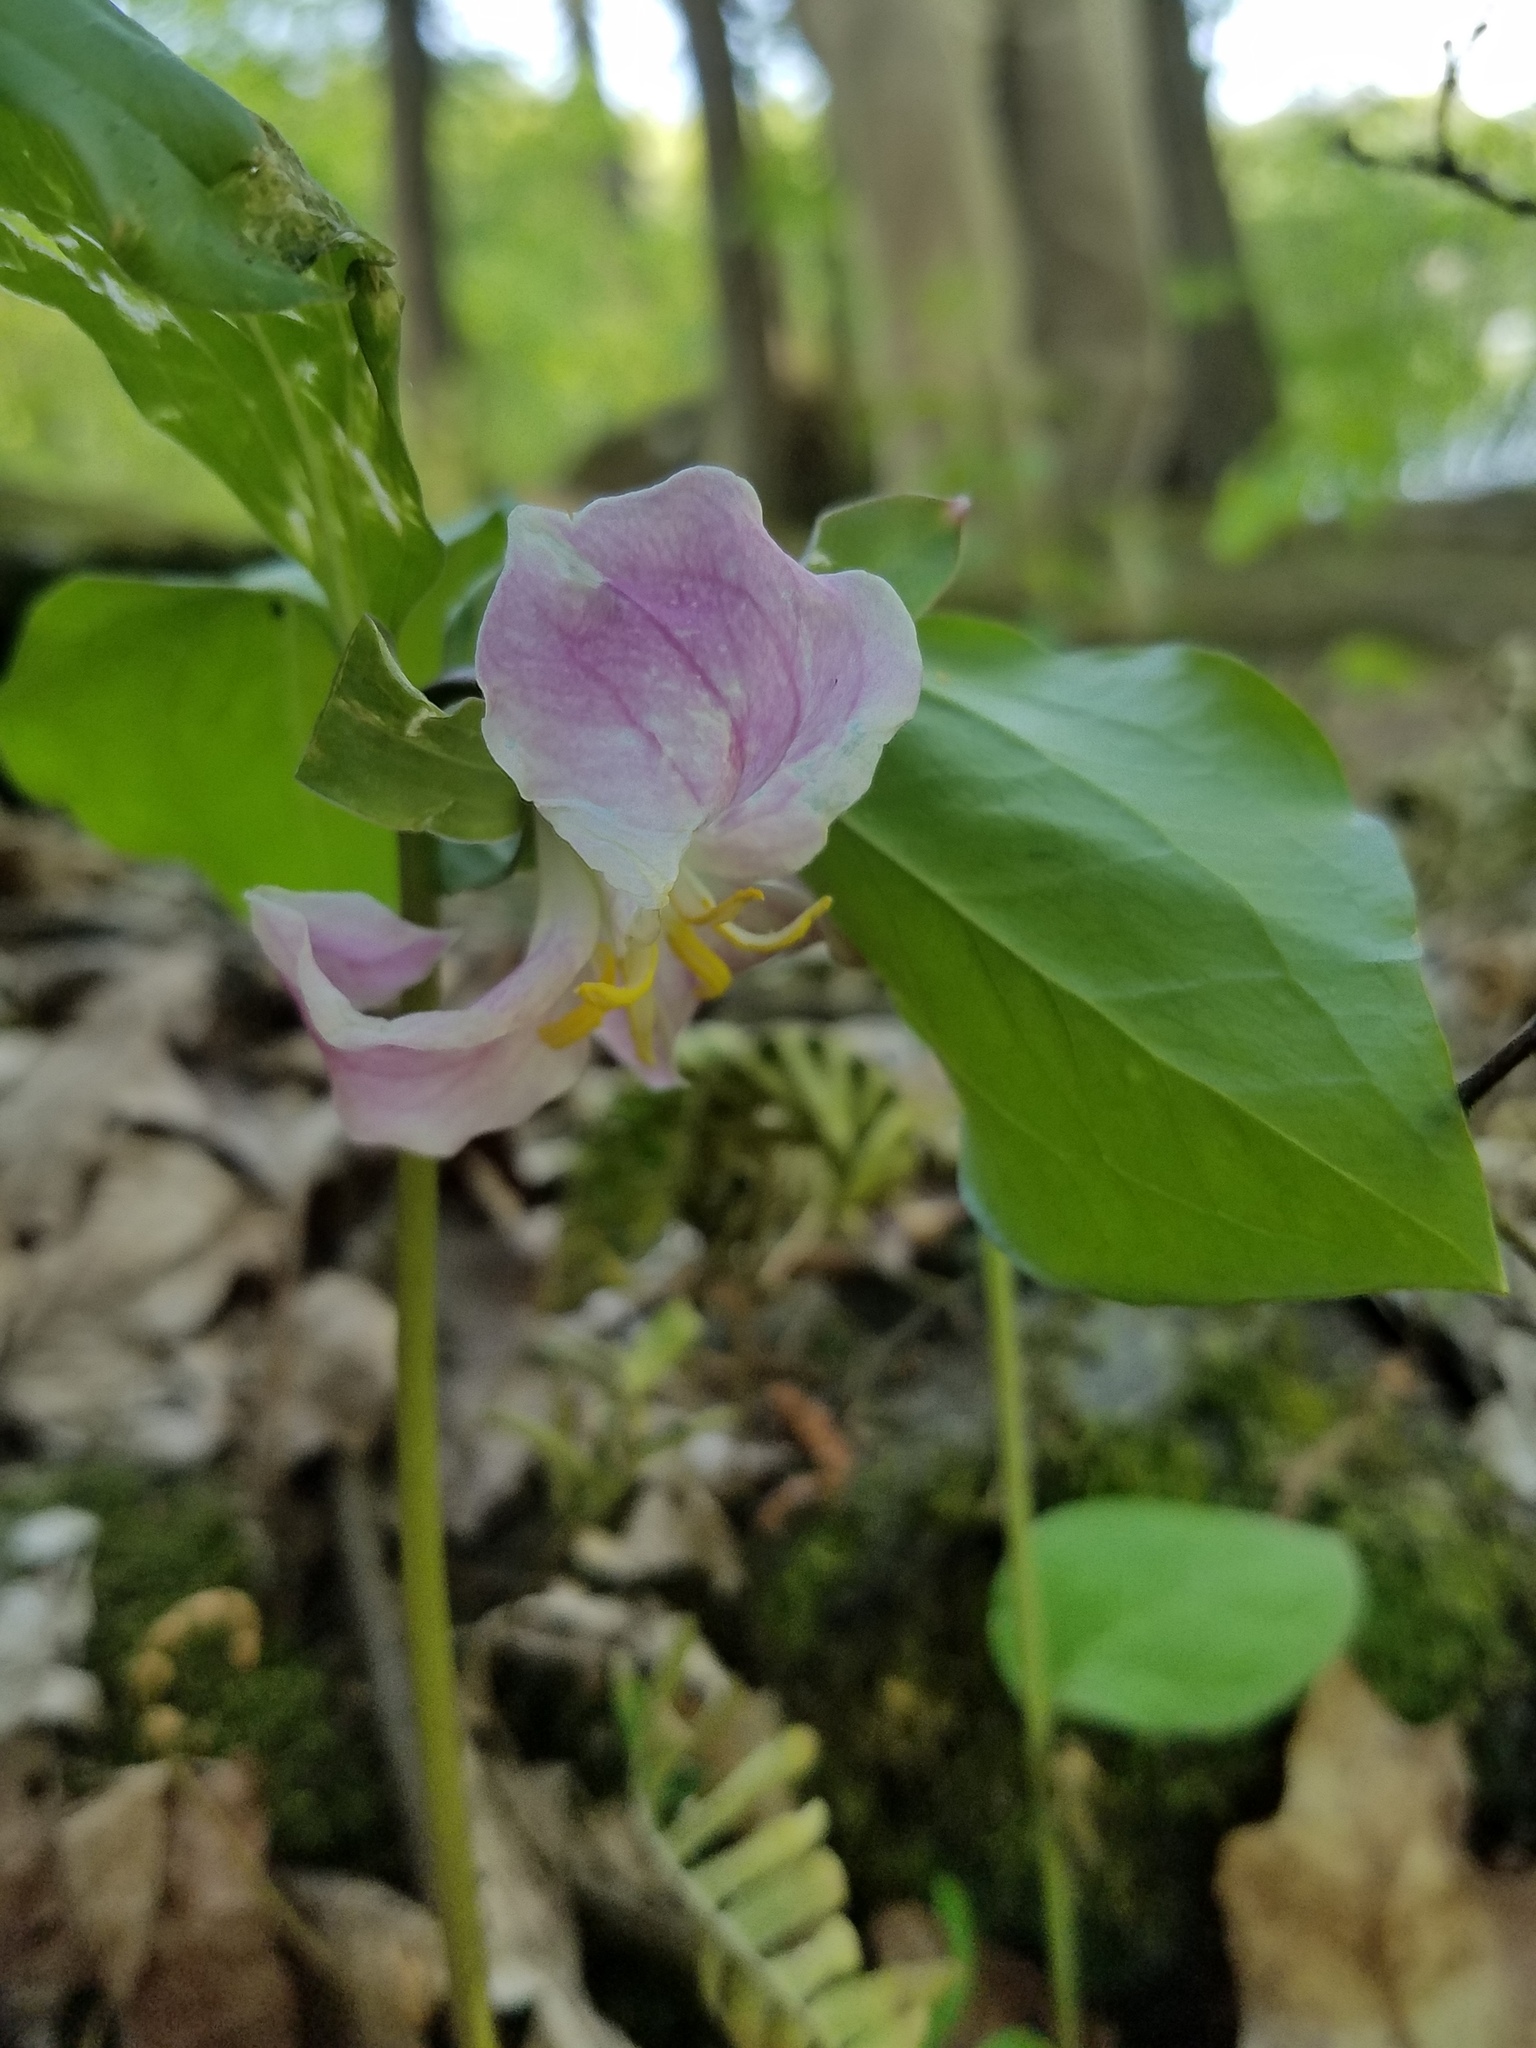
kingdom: Plantae
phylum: Tracheophyta
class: Liliopsida
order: Liliales
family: Melanthiaceae
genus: Trillium
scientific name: Trillium catesbaei
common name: Bashful trillium
